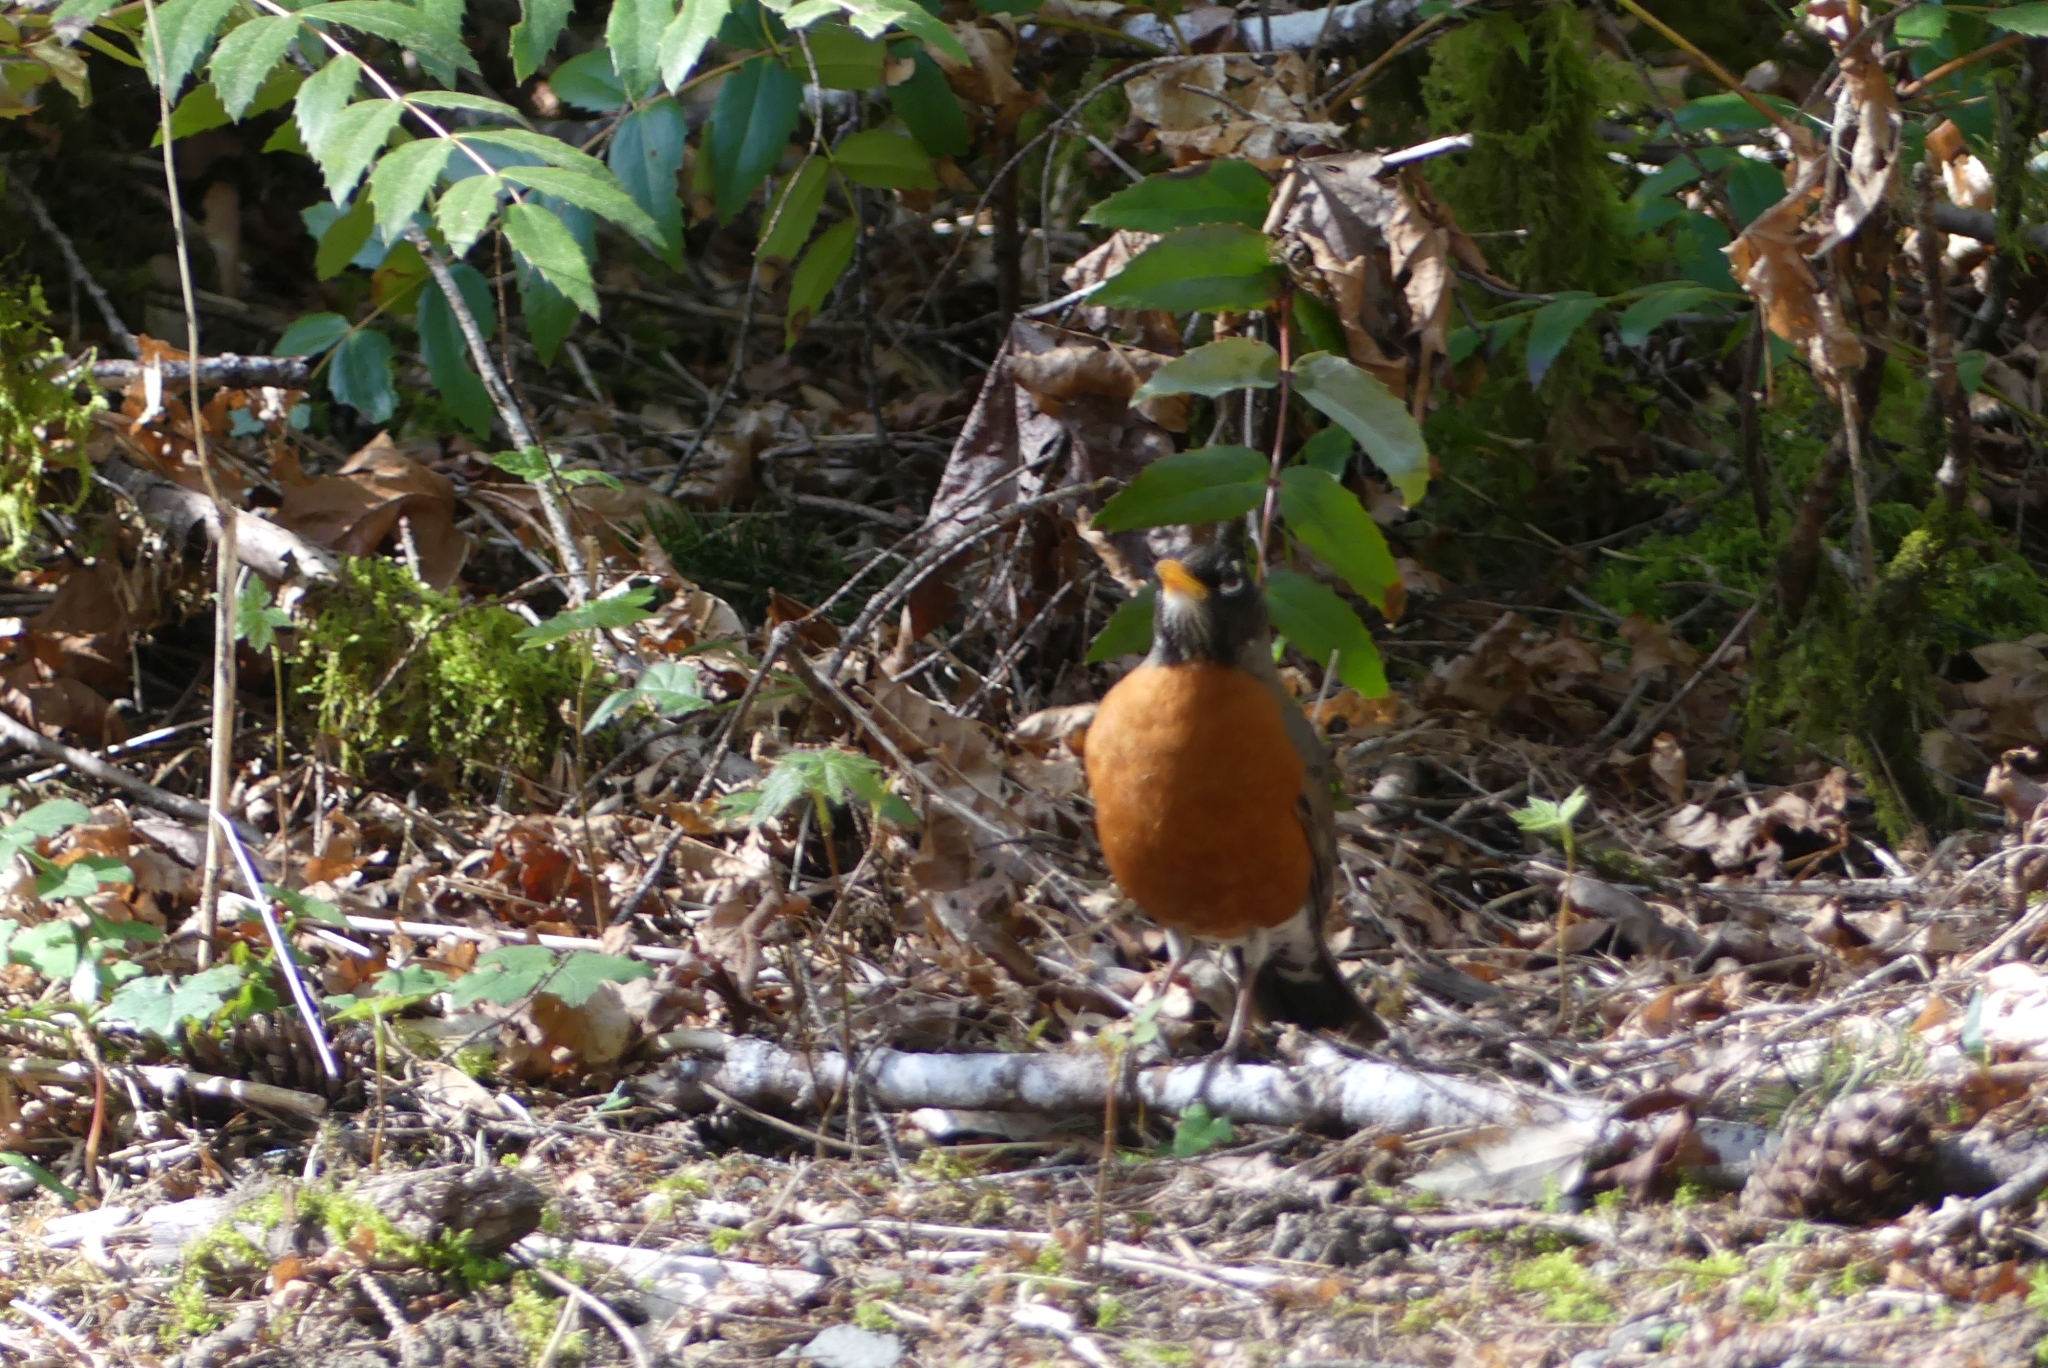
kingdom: Animalia
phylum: Chordata
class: Aves
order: Passeriformes
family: Turdidae
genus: Turdus
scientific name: Turdus migratorius
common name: American robin
